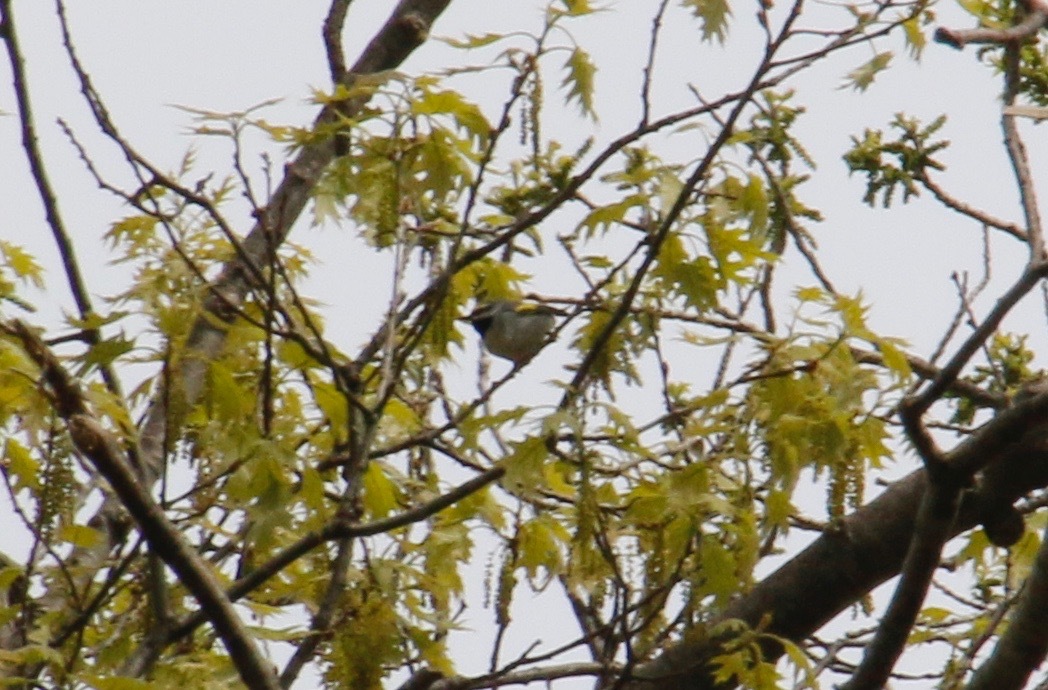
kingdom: Animalia
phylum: Chordata
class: Aves
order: Passeriformes
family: Parulidae
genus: Vermivora
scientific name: Vermivora chrysoptera
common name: Golden-winged warbler
